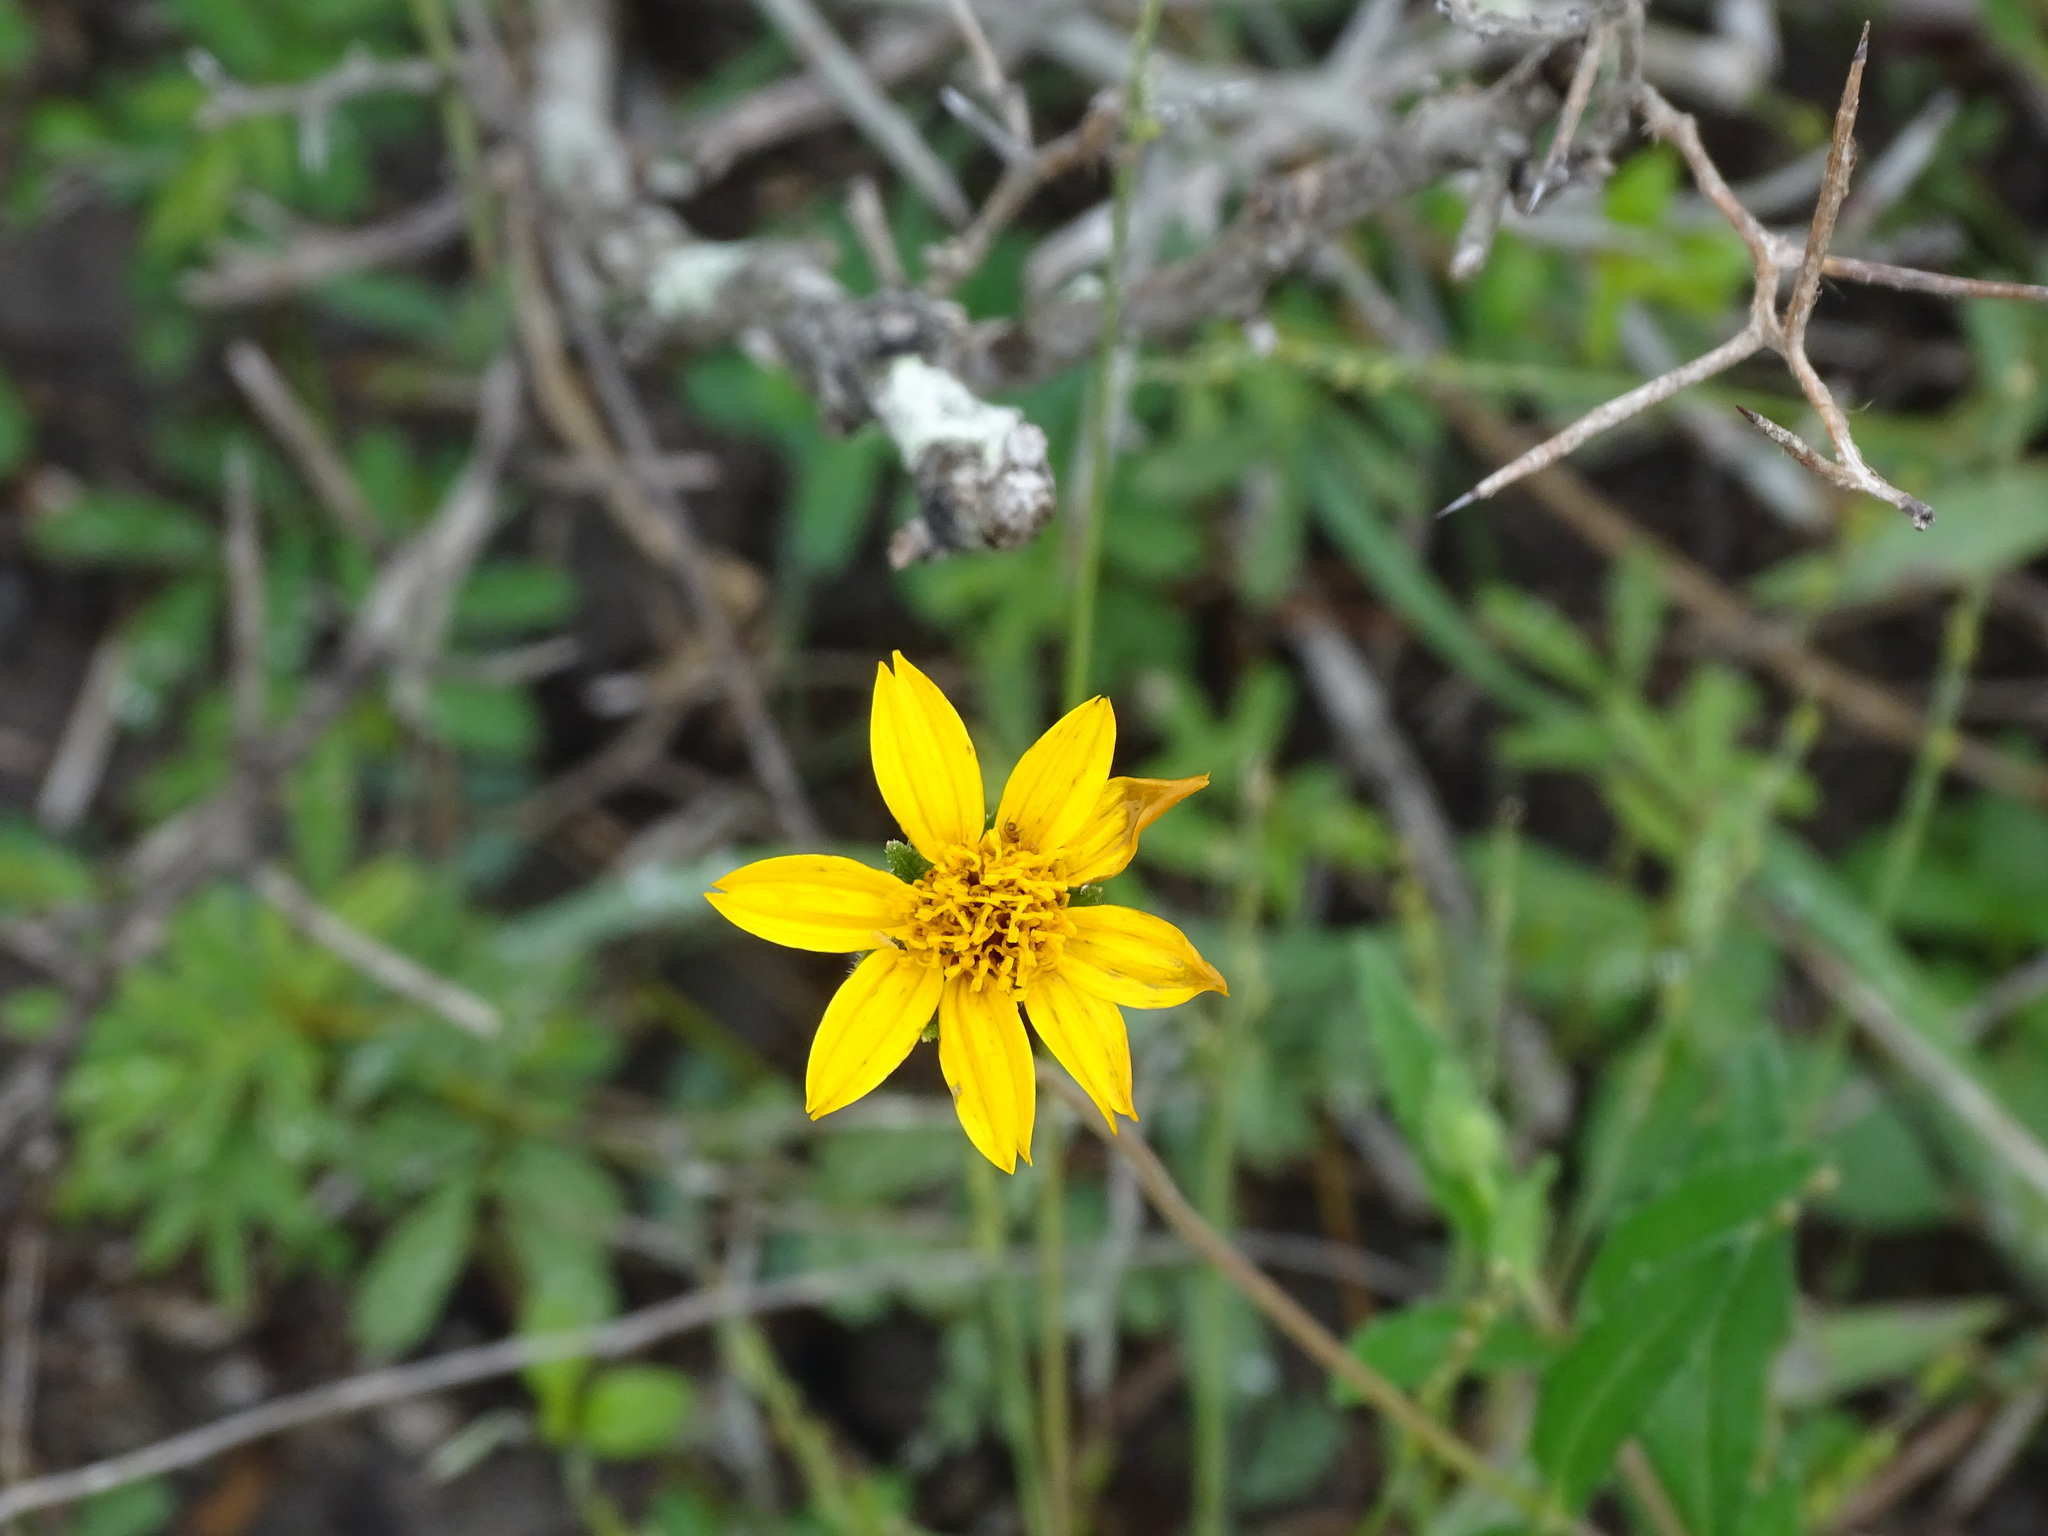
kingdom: Plantae
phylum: Tracheophyta
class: Magnoliopsida
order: Asterales
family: Asteraceae
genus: Wedelia
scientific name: Wedelia acapulcensis
